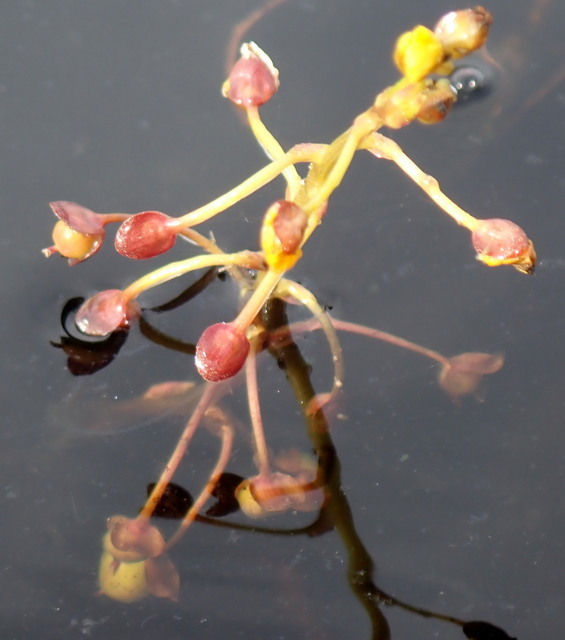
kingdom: Plantae
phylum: Tracheophyta
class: Magnoliopsida
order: Lamiales
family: Lentibulariaceae
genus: Utricularia
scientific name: Utricularia foliosa
